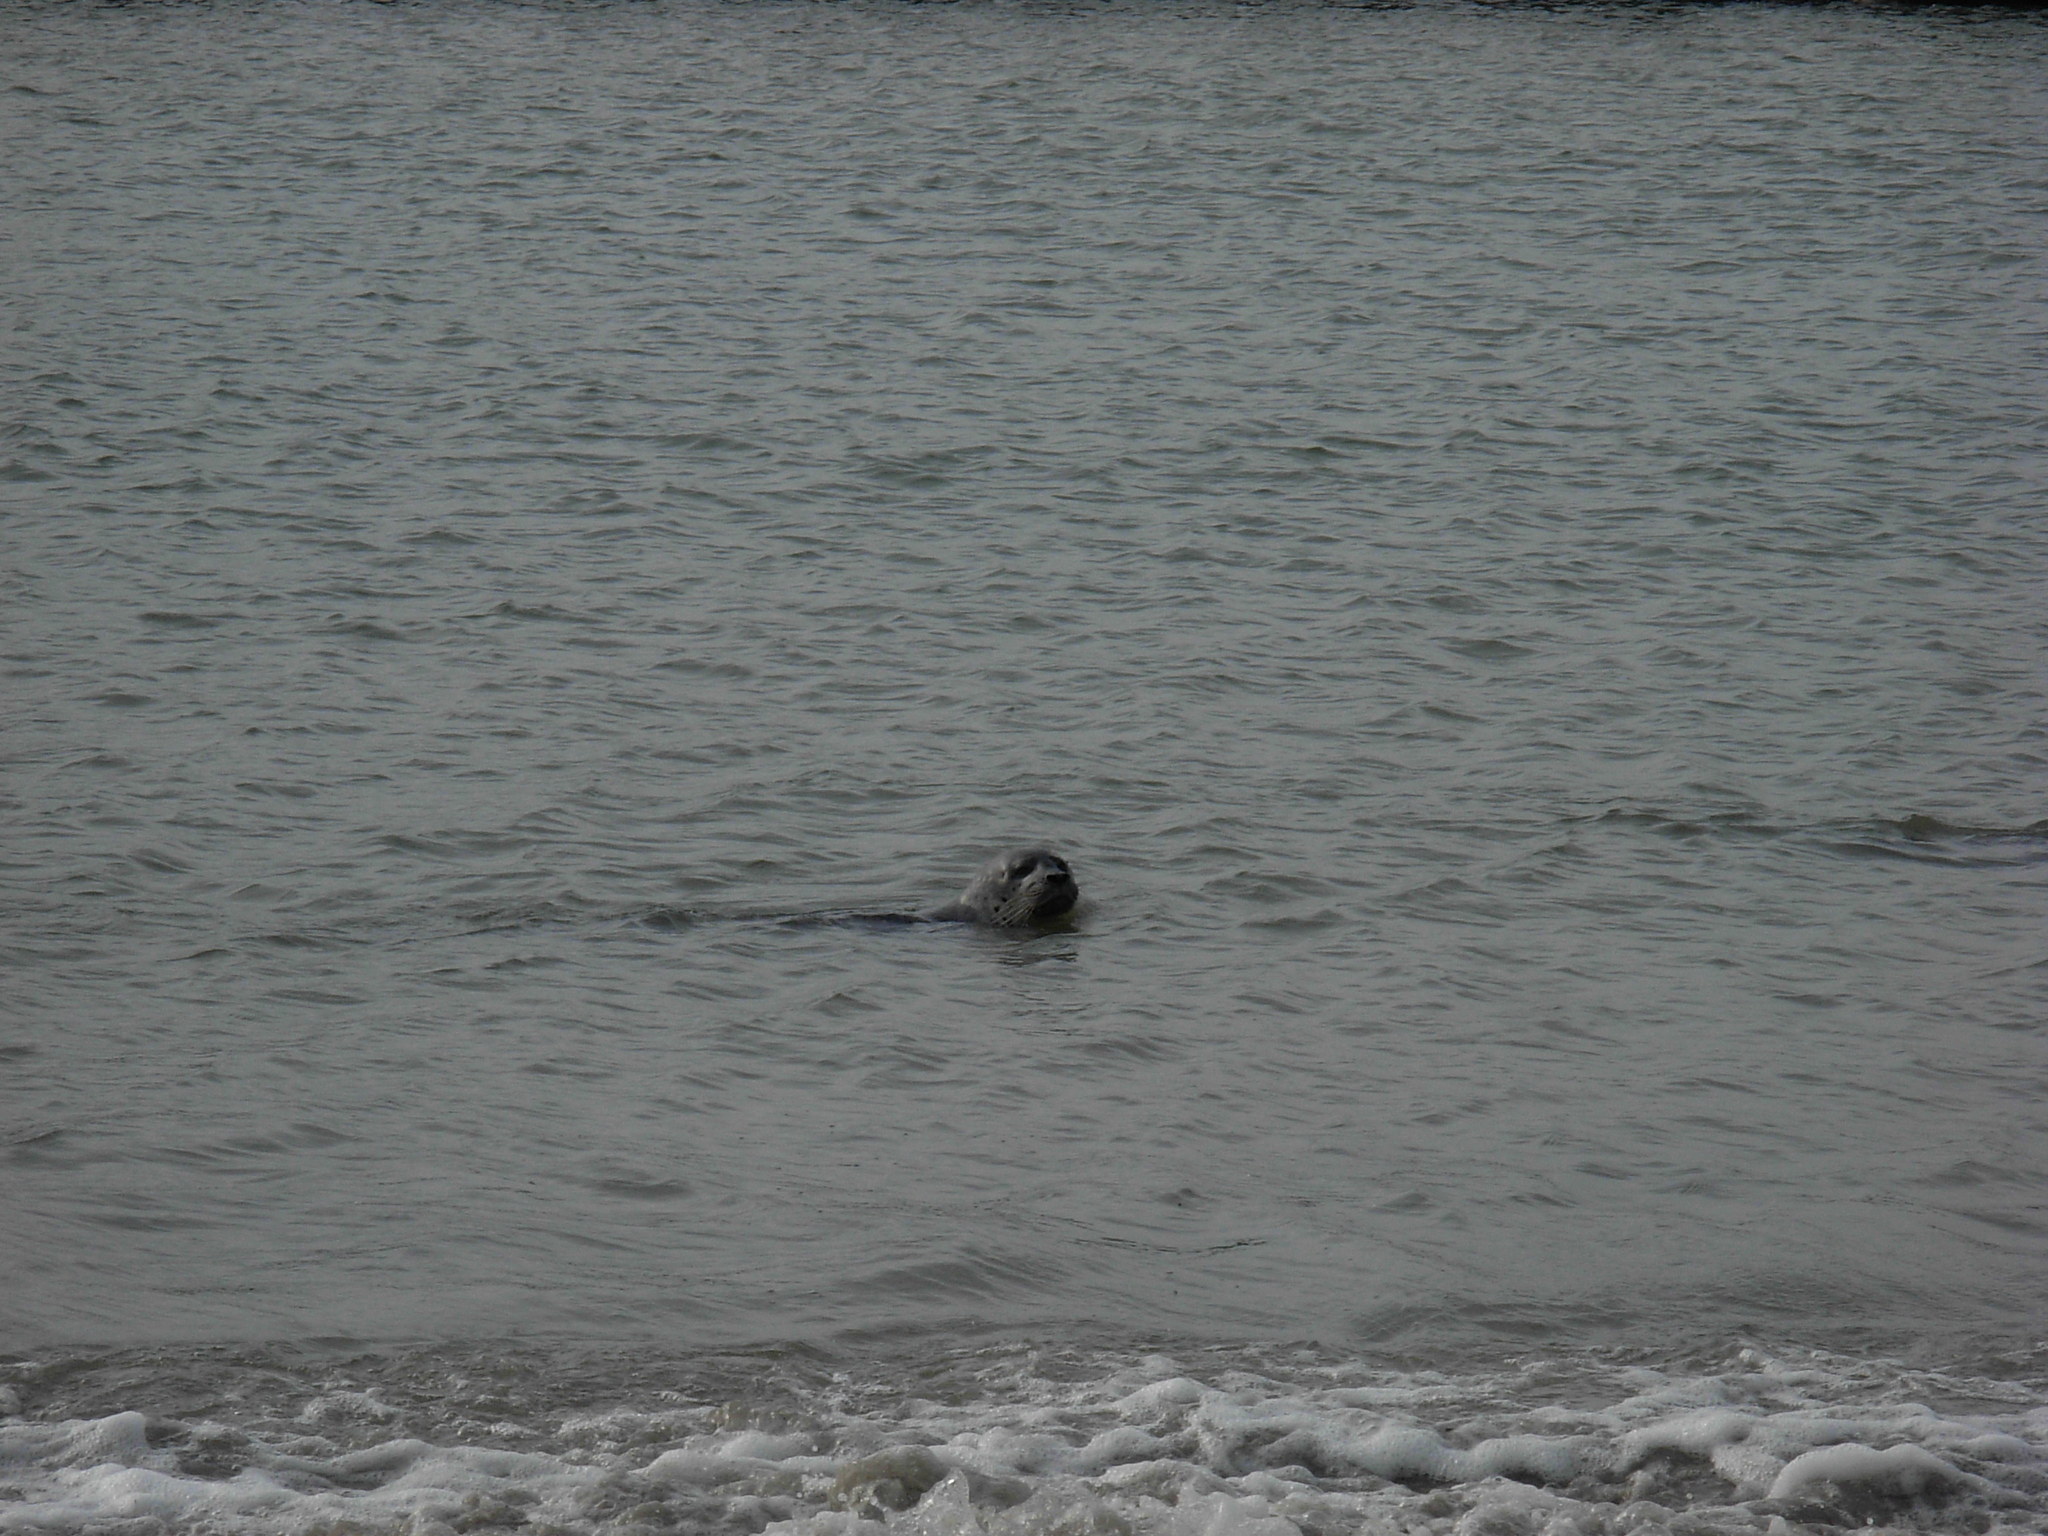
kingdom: Animalia
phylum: Chordata
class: Mammalia
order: Carnivora
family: Phocidae
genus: Phoca
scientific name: Phoca vitulina
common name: Harbor seal
